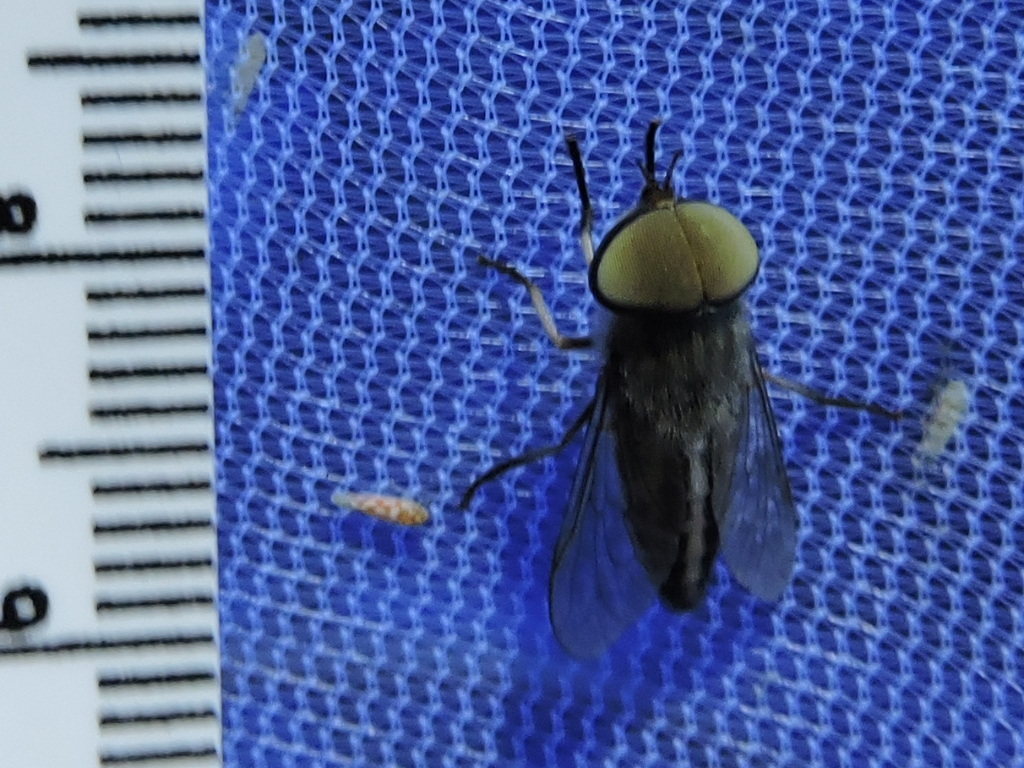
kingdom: Animalia
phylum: Arthropoda
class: Insecta
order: Diptera
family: Tabanidae
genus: Tabanus
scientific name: Tabanus lineola
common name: Striped horse fly
